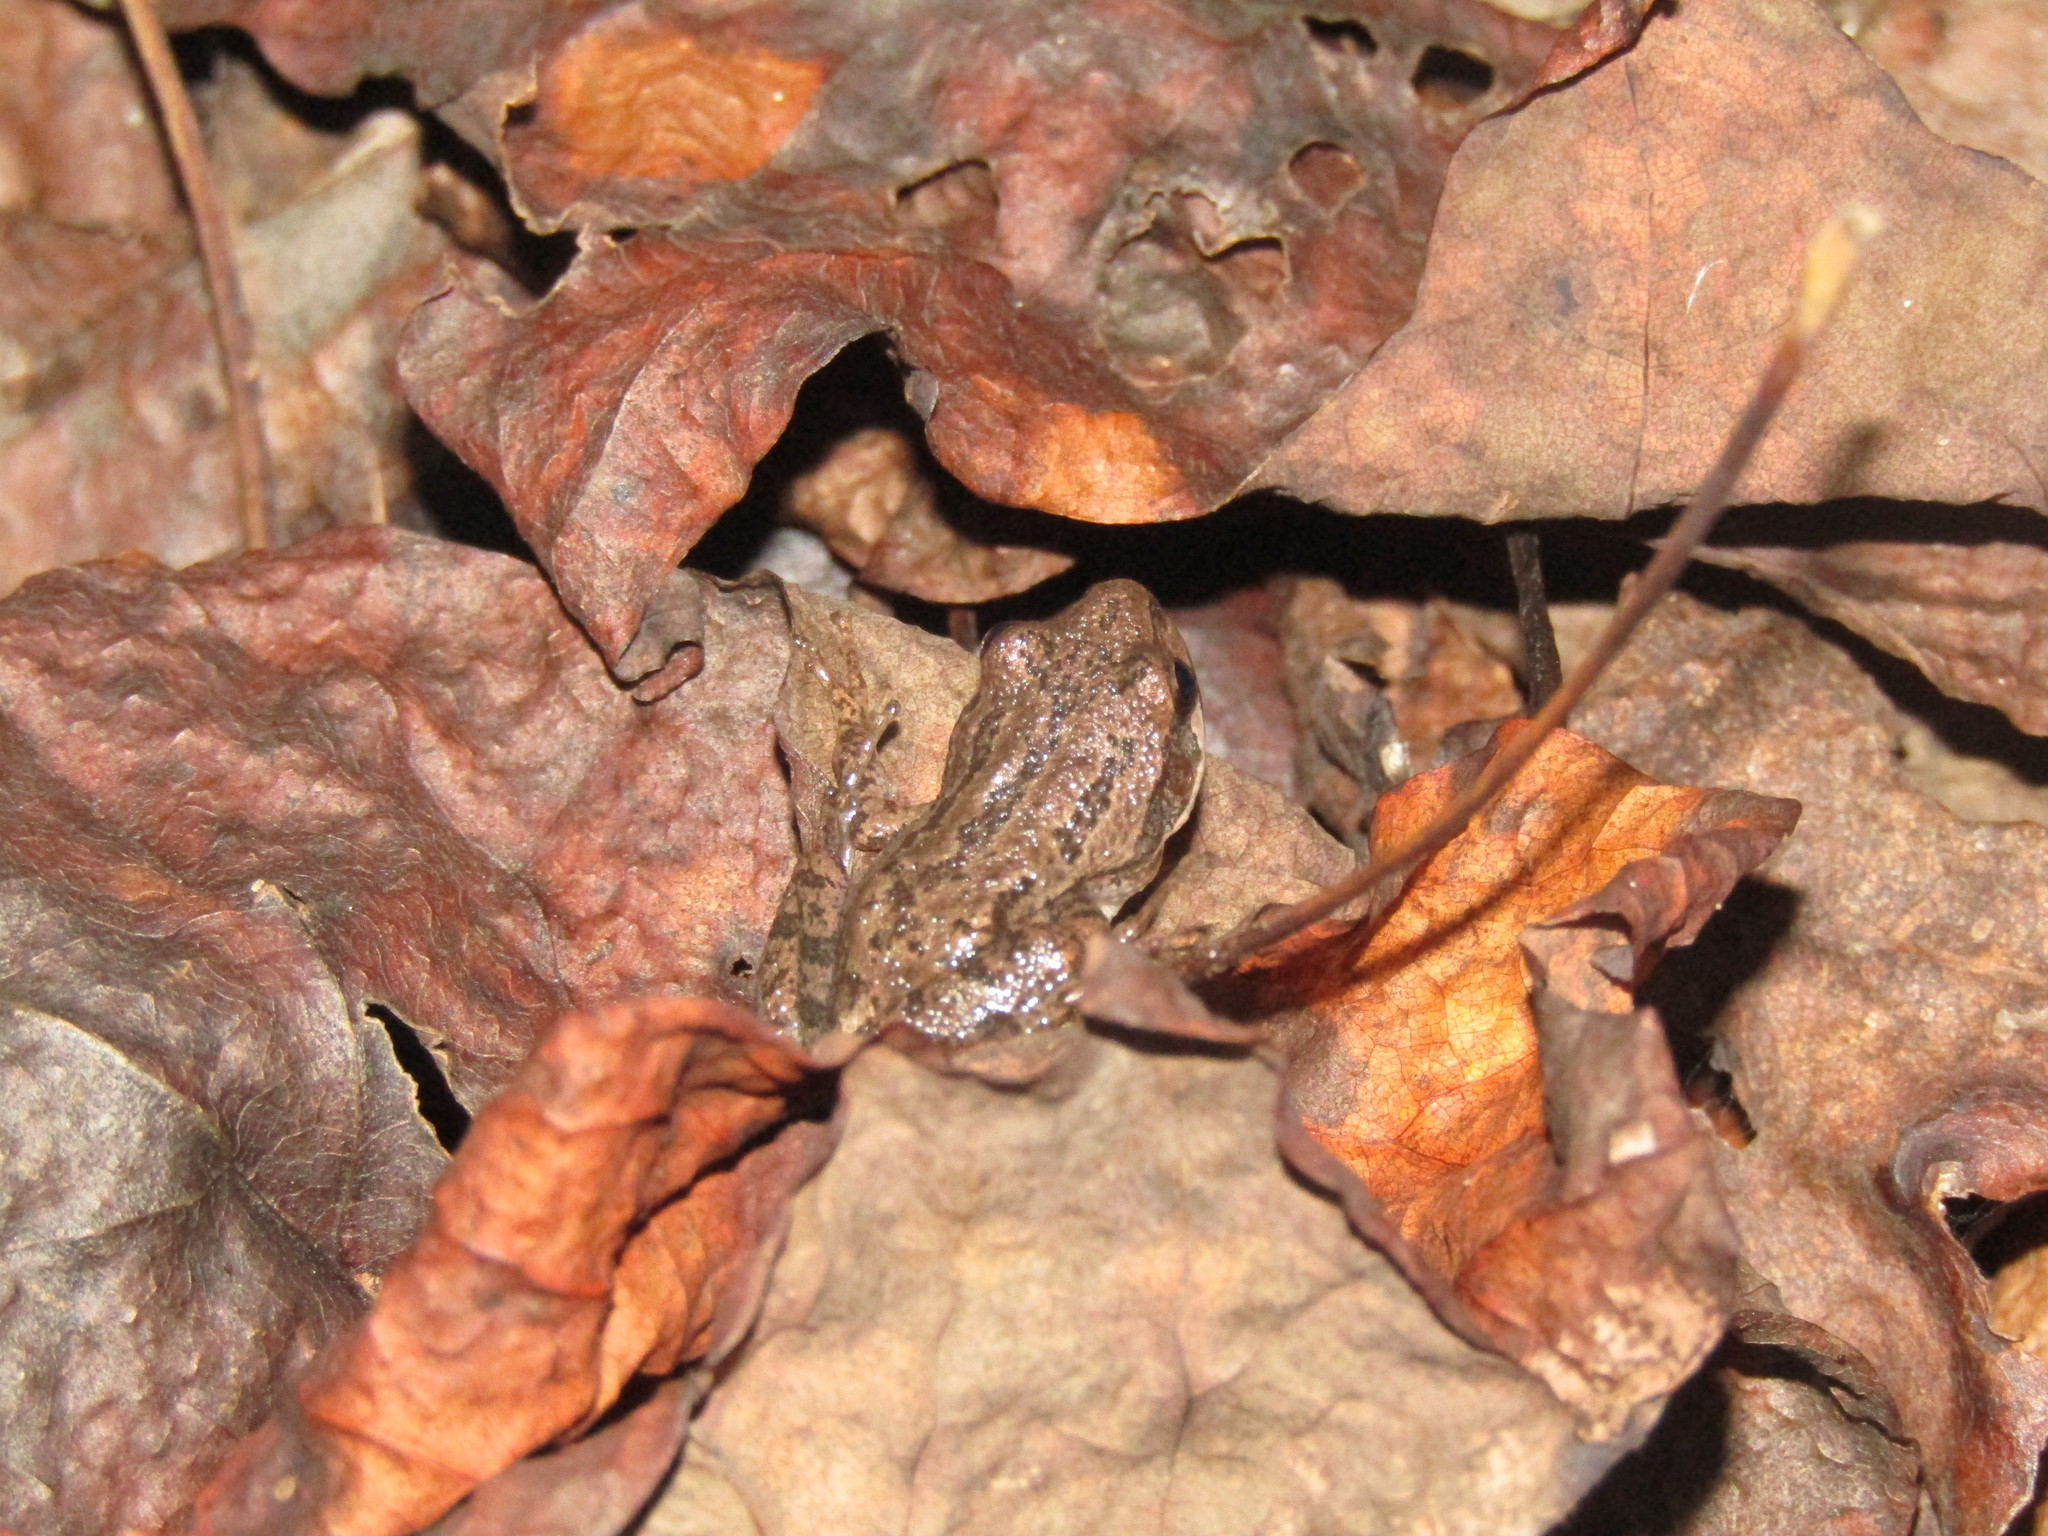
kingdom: Animalia
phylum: Chordata
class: Amphibia
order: Anura
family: Hylidae
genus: Pseudacris
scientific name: Pseudacris feriarum
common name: Upland chorus frog
